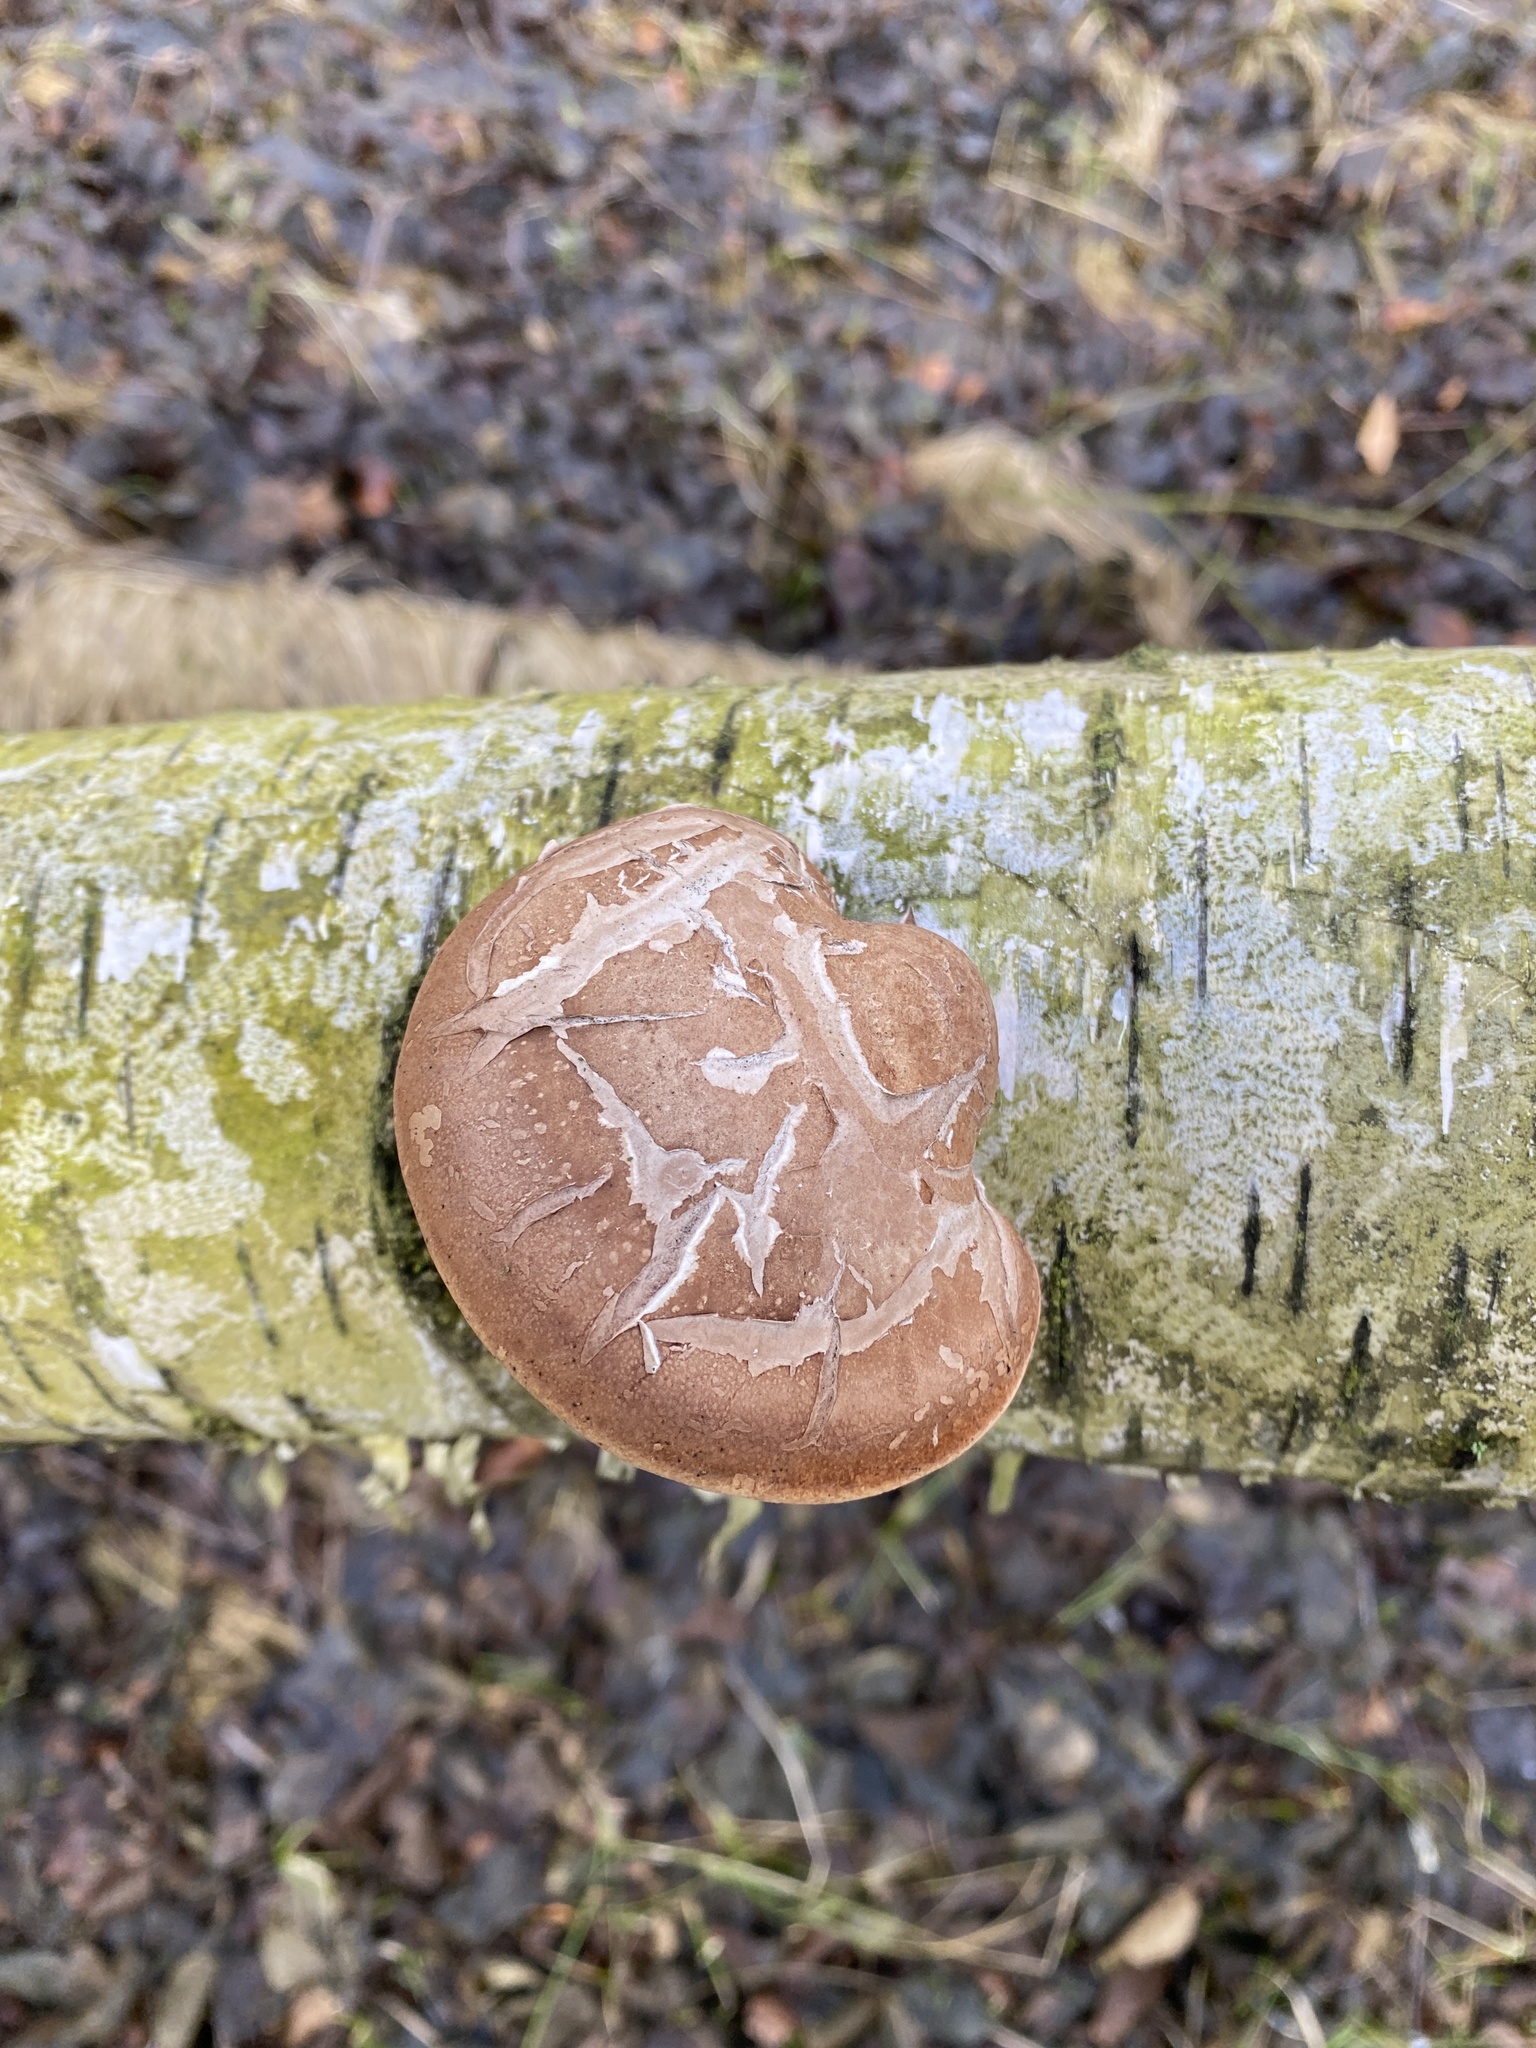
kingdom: Fungi
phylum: Basidiomycota
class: Agaricomycetes
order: Polyporales
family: Fomitopsidaceae
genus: Fomitopsis
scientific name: Fomitopsis betulina
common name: Birch polypore
